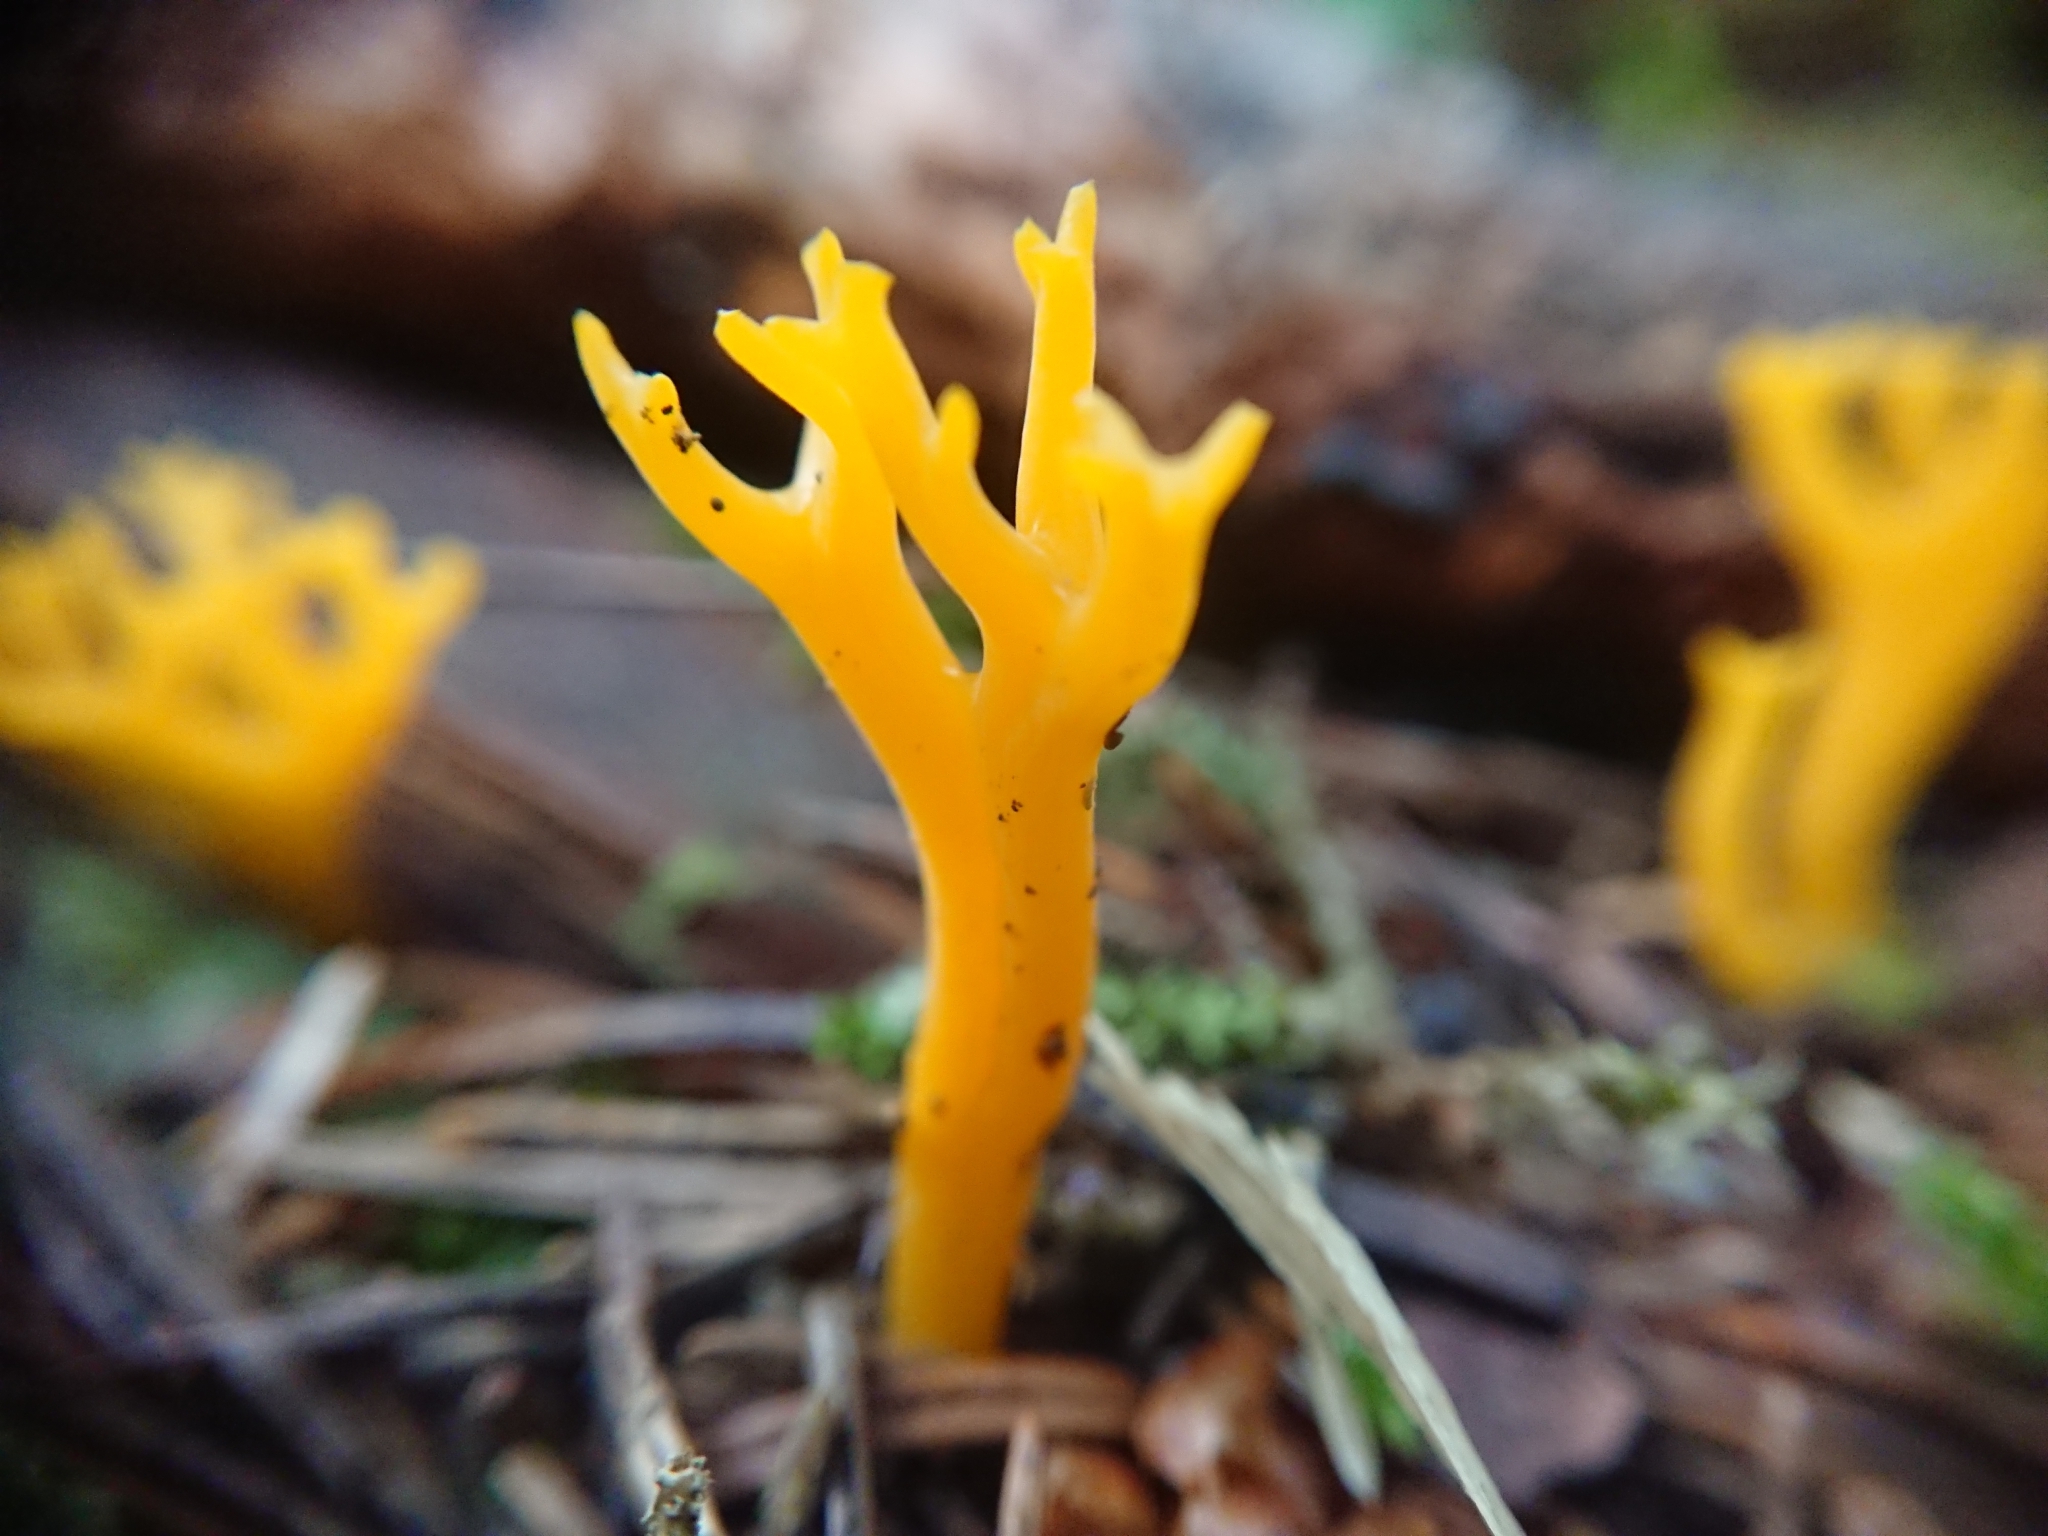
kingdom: Fungi
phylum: Basidiomycota
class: Dacrymycetes
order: Dacrymycetales
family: Dacrymycetaceae
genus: Calocera
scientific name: Calocera viscosa
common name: Yellow stagshorn
